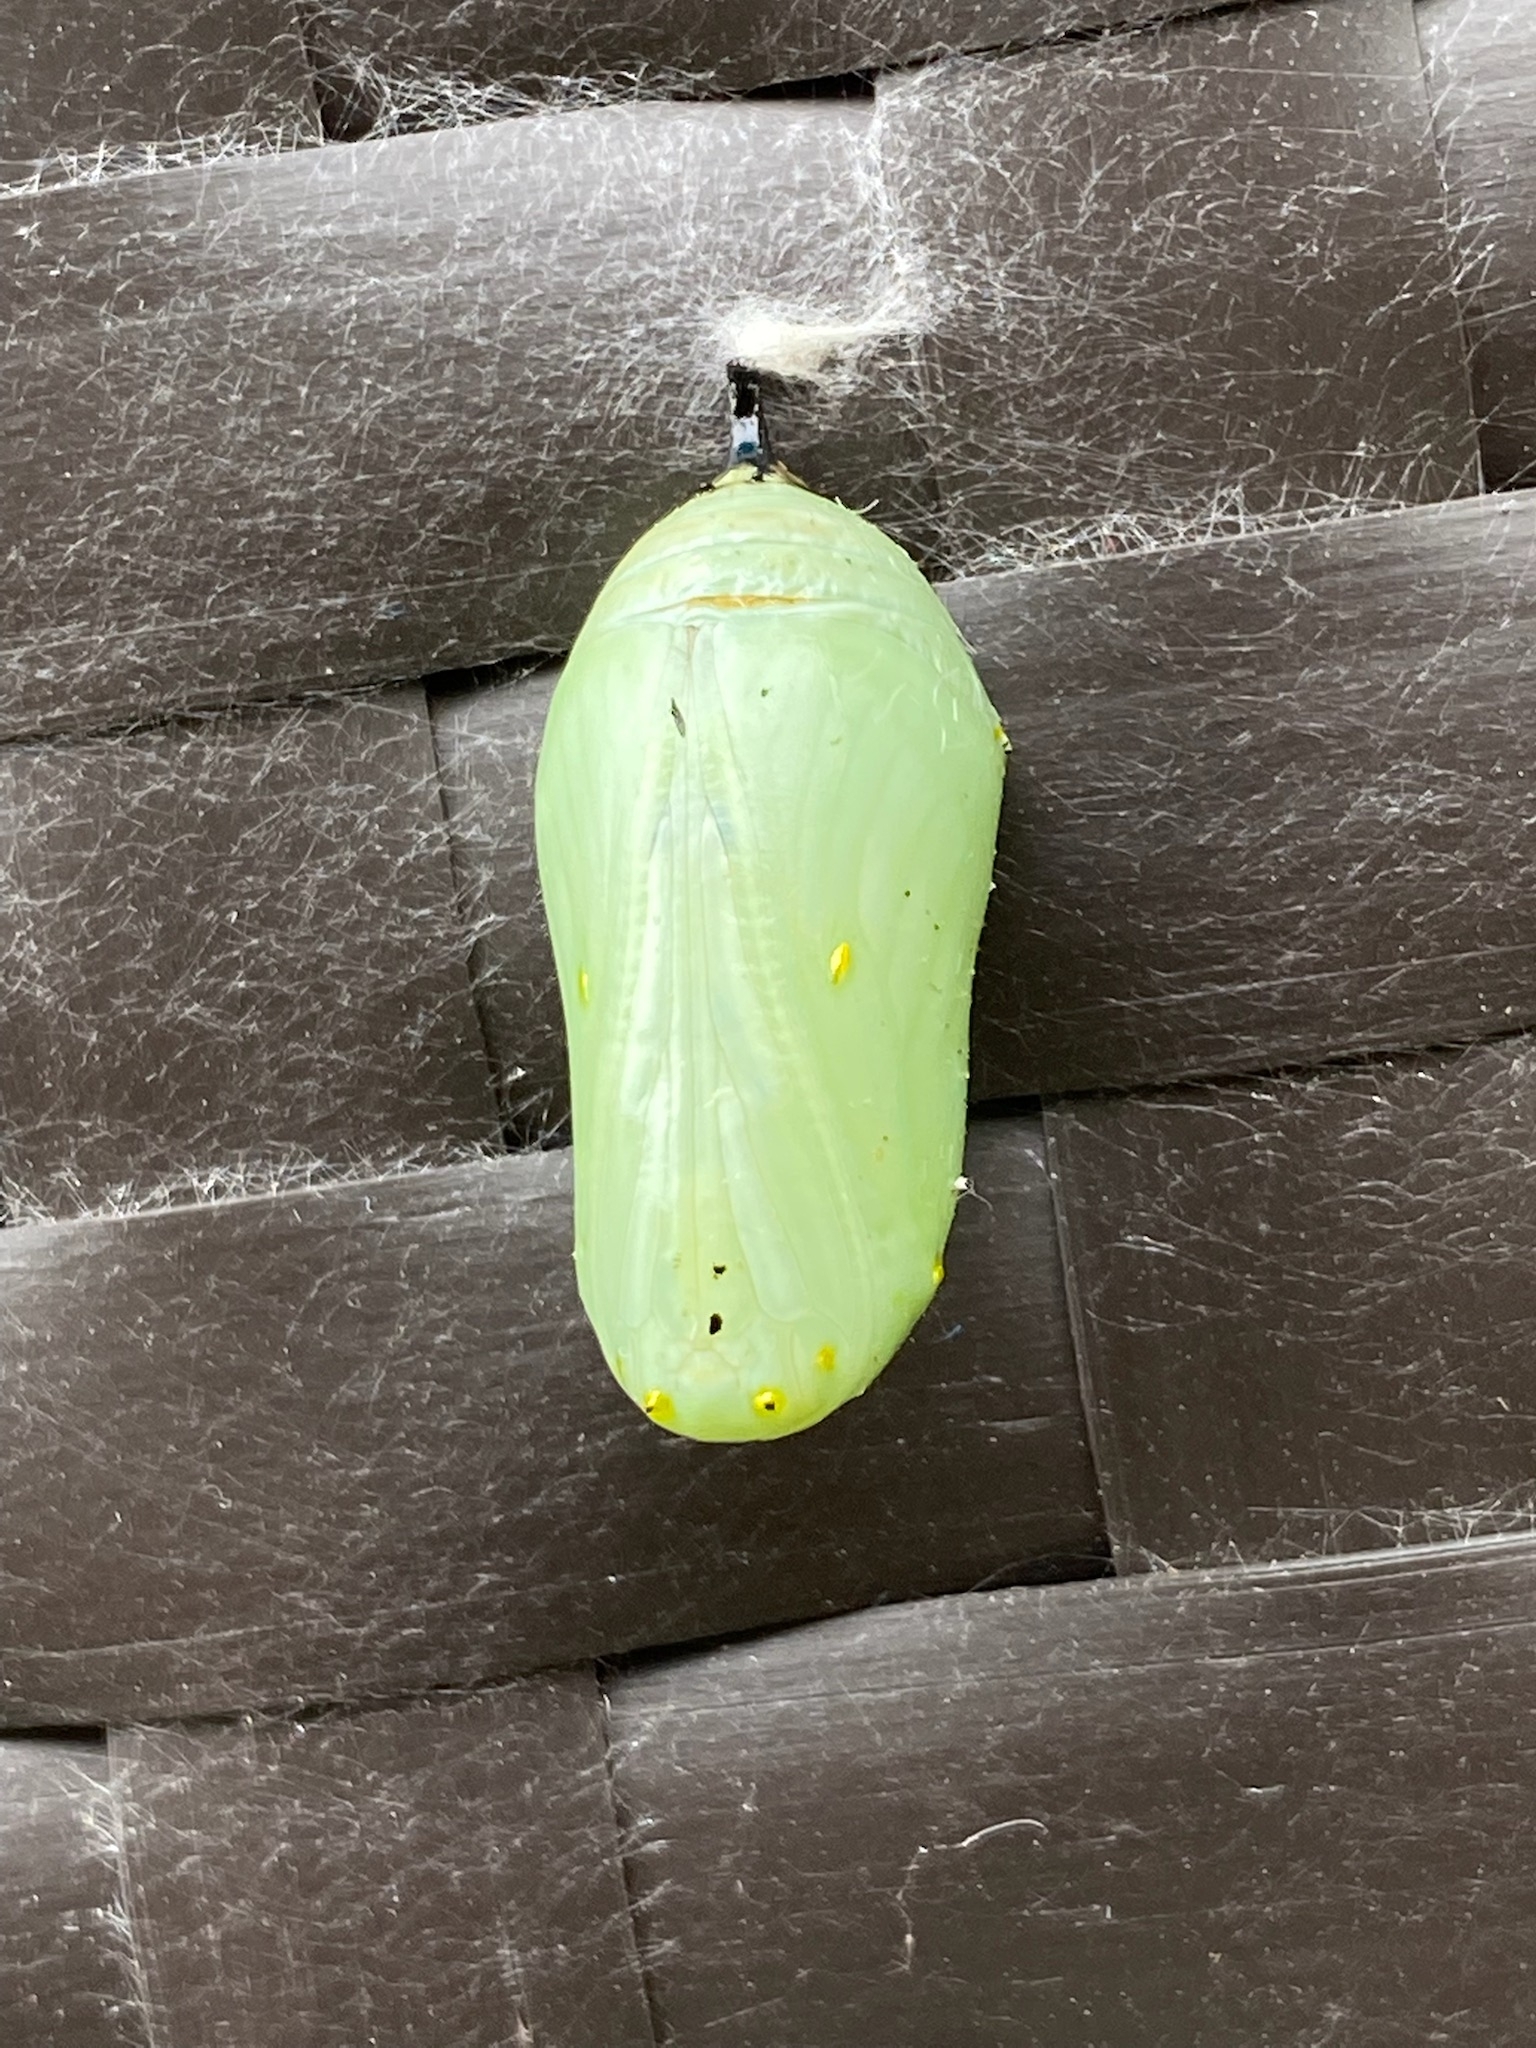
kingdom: Animalia
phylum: Arthropoda
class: Insecta
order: Lepidoptera
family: Nymphalidae
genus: Danaus
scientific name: Danaus plexippus
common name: Monarch
